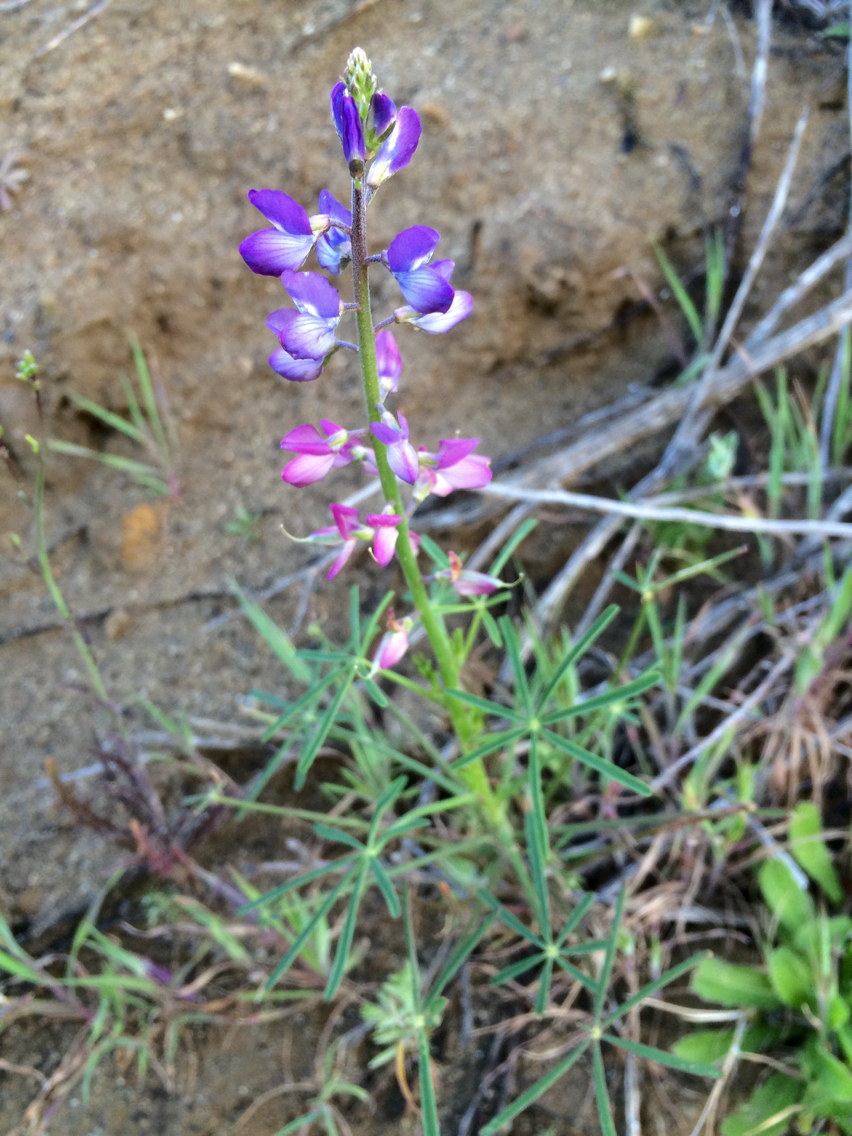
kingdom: Plantae
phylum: Tracheophyta
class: Magnoliopsida
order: Fabales
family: Fabaceae
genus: Lupinus
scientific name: Lupinus truncatus
